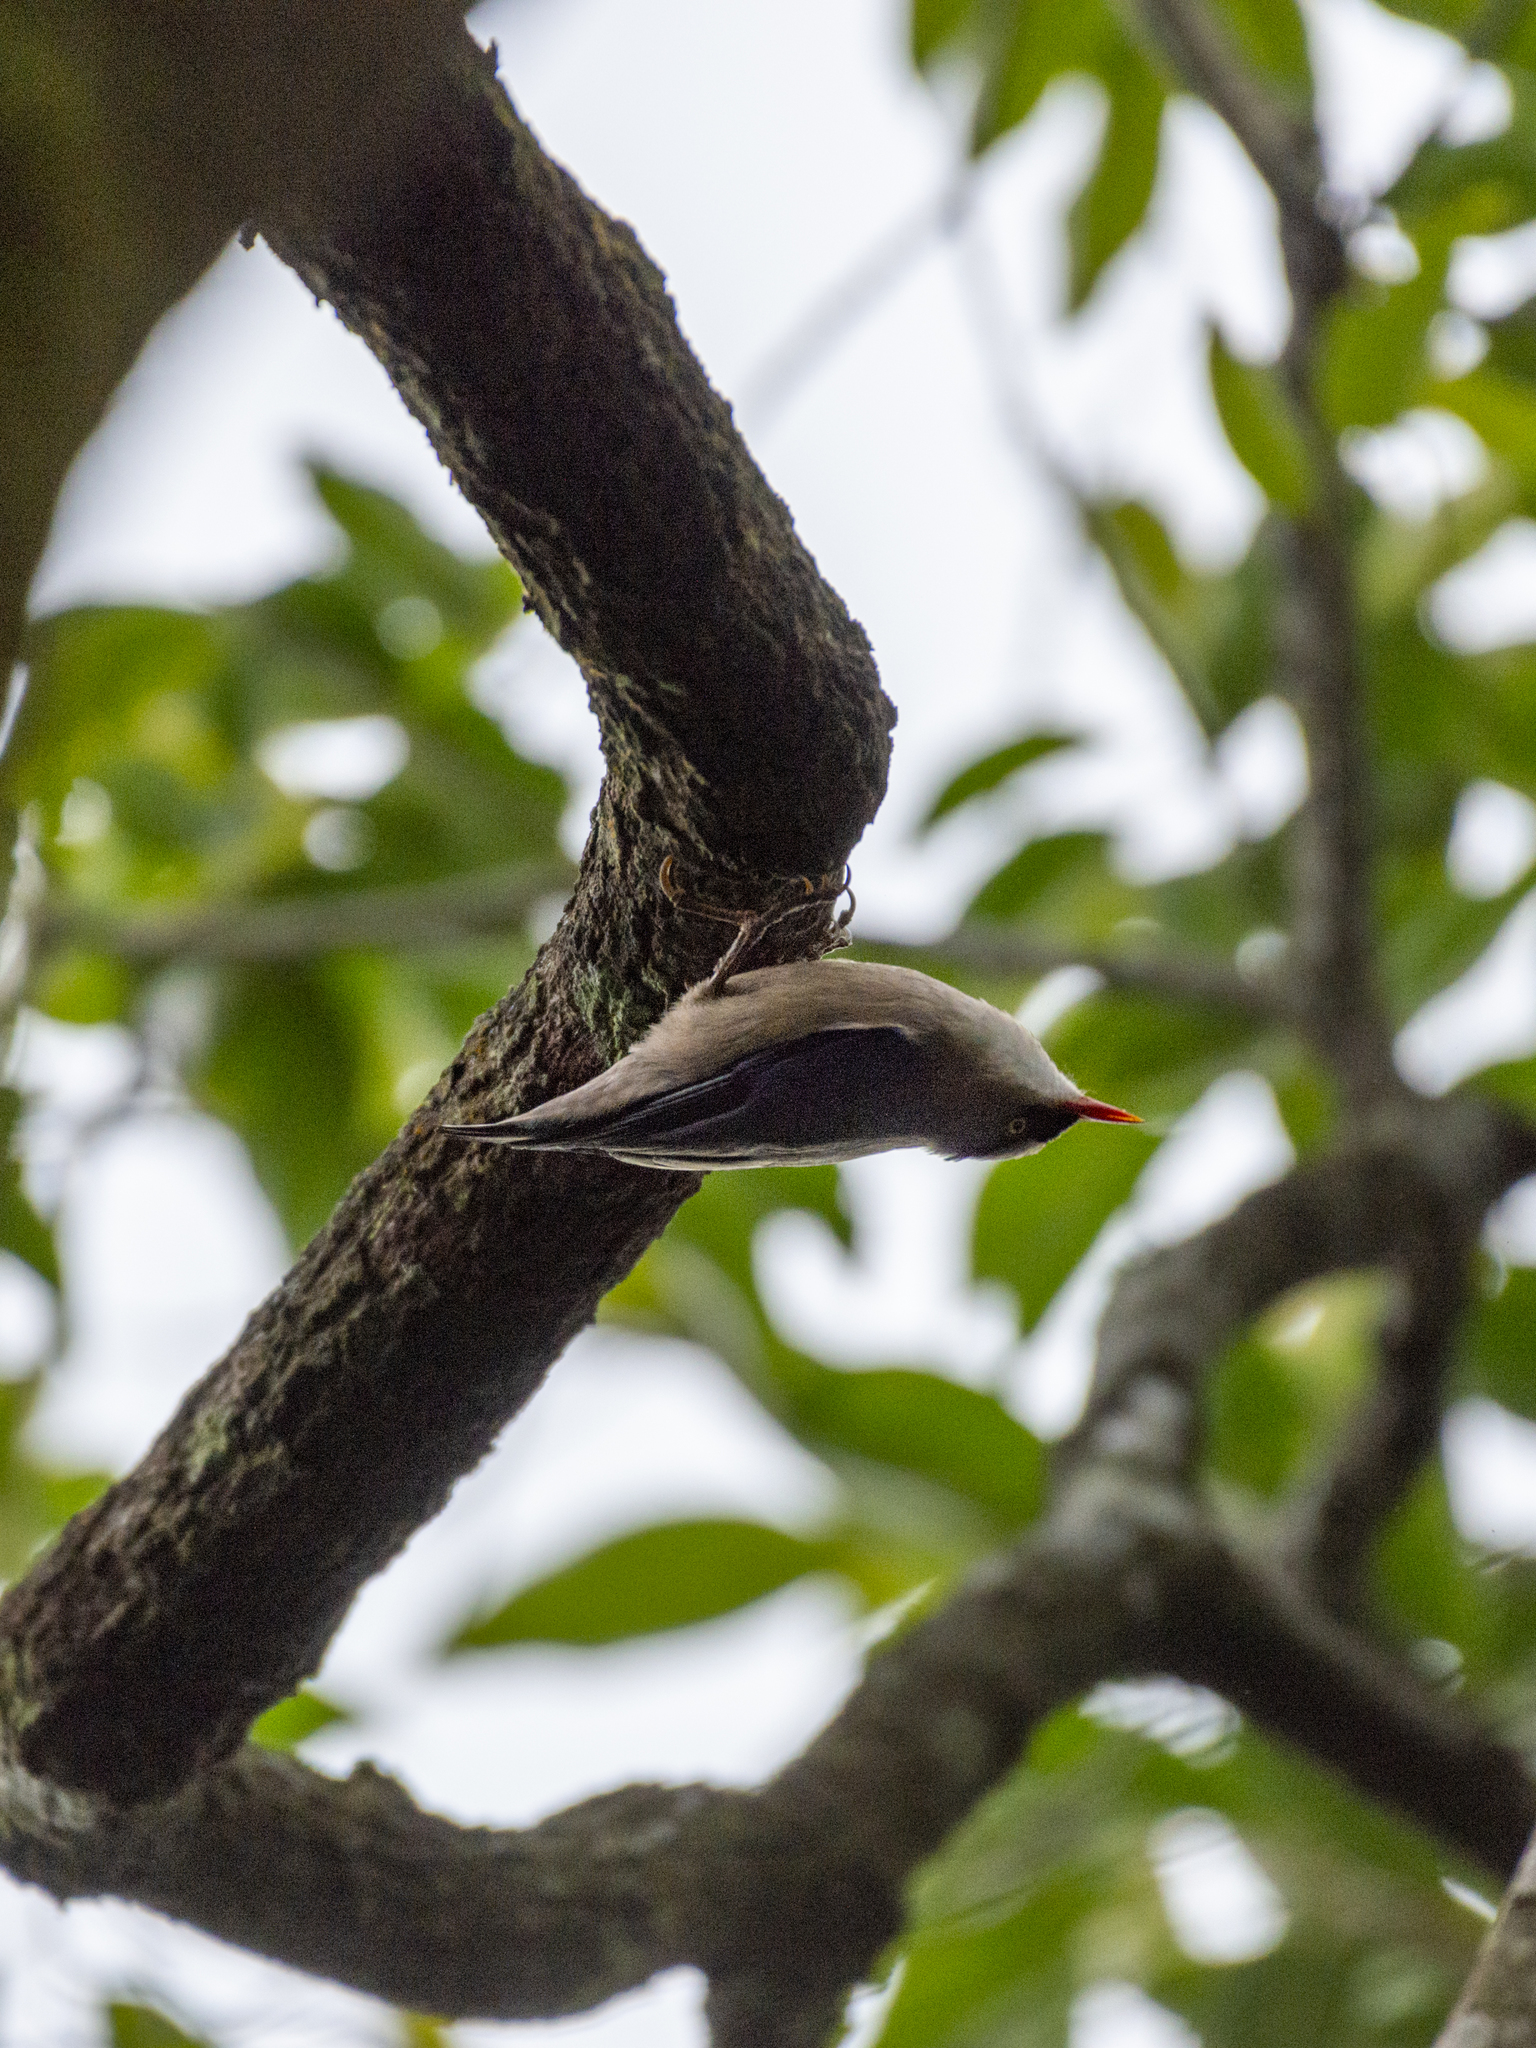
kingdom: Animalia
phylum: Chordata
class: Aves
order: Passeriformes
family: Sittidae
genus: Sitta
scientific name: Sitta frontalis
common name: Velvet-fronted nuthatch
